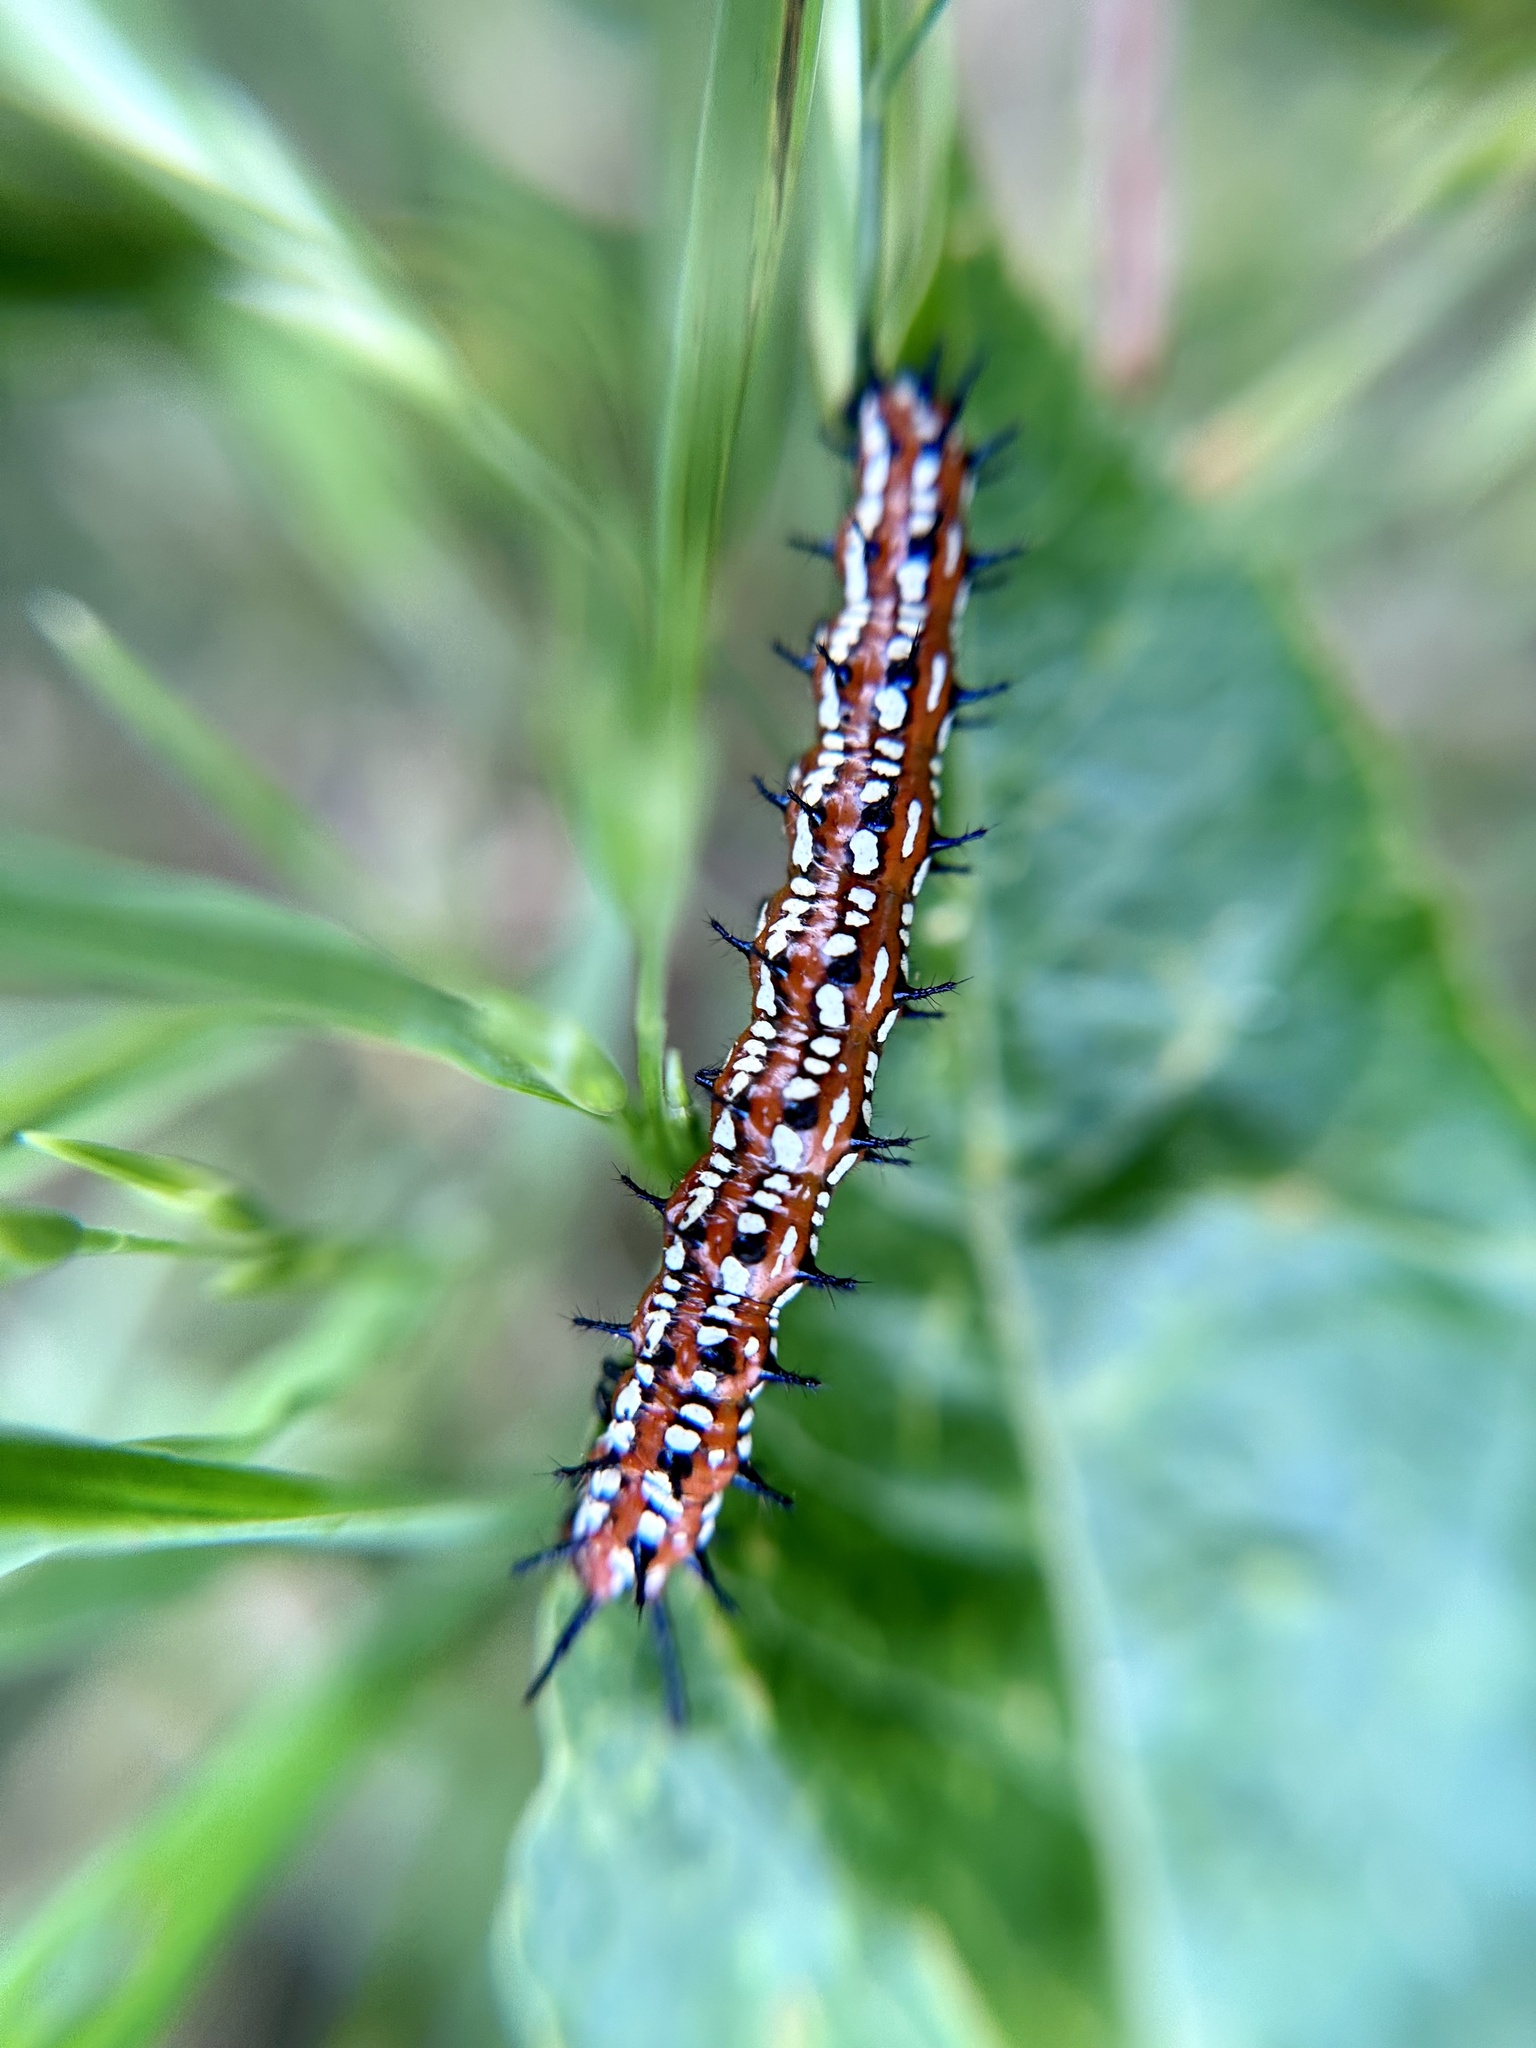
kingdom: Animalia
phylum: Arthropoda
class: Insecta
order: Lepidoptera
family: Nymphalidae
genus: Euptoieta
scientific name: Euptoieta claudia
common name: Variegated fritillary
